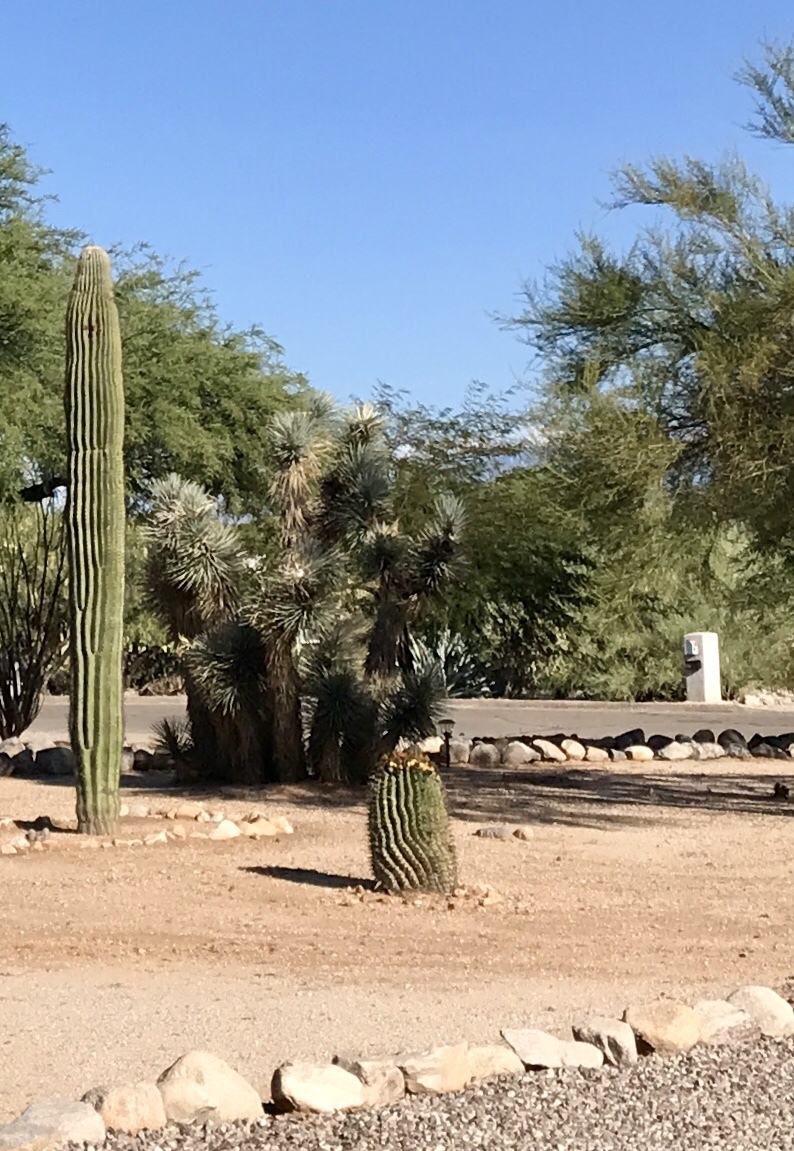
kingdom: Plantae
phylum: Tracheophyta
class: Magnoliopsida
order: Caryophyllales
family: Cactaceae
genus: Ferocactus
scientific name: Ferocactus wislizeni
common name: Candy barrel cactus
